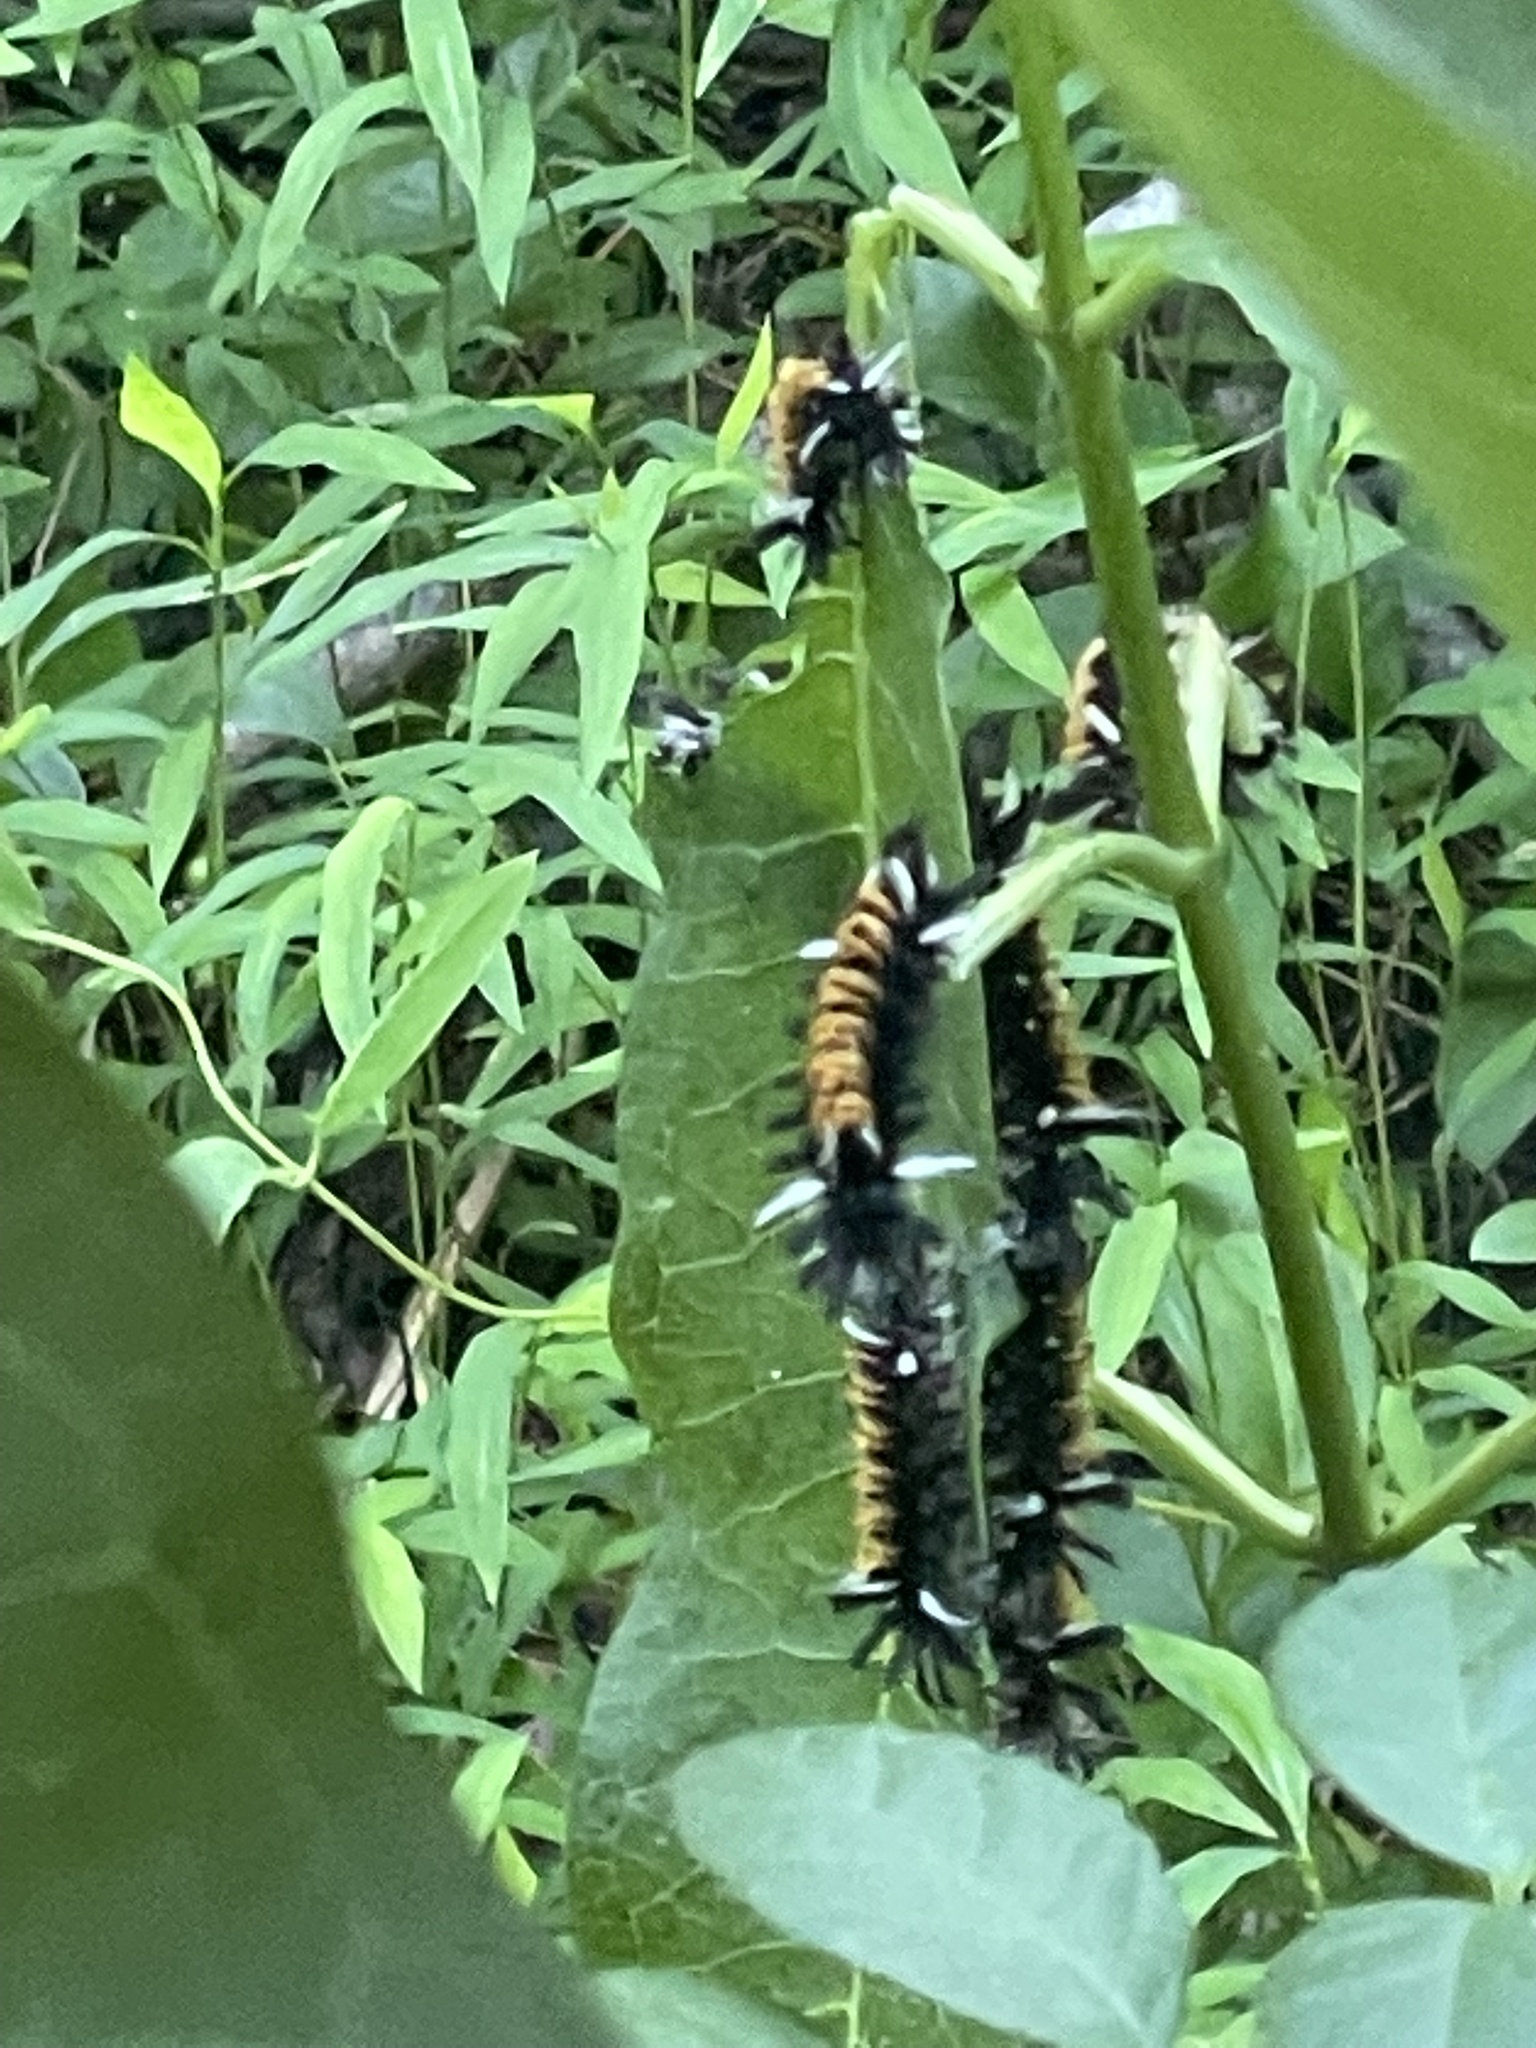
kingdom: Animalia
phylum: Arthropoda
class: Insecta
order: Lepidoptera
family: Erebidae
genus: Euchaetes
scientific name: Euchaetes egle
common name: Milkweed tussock moth
